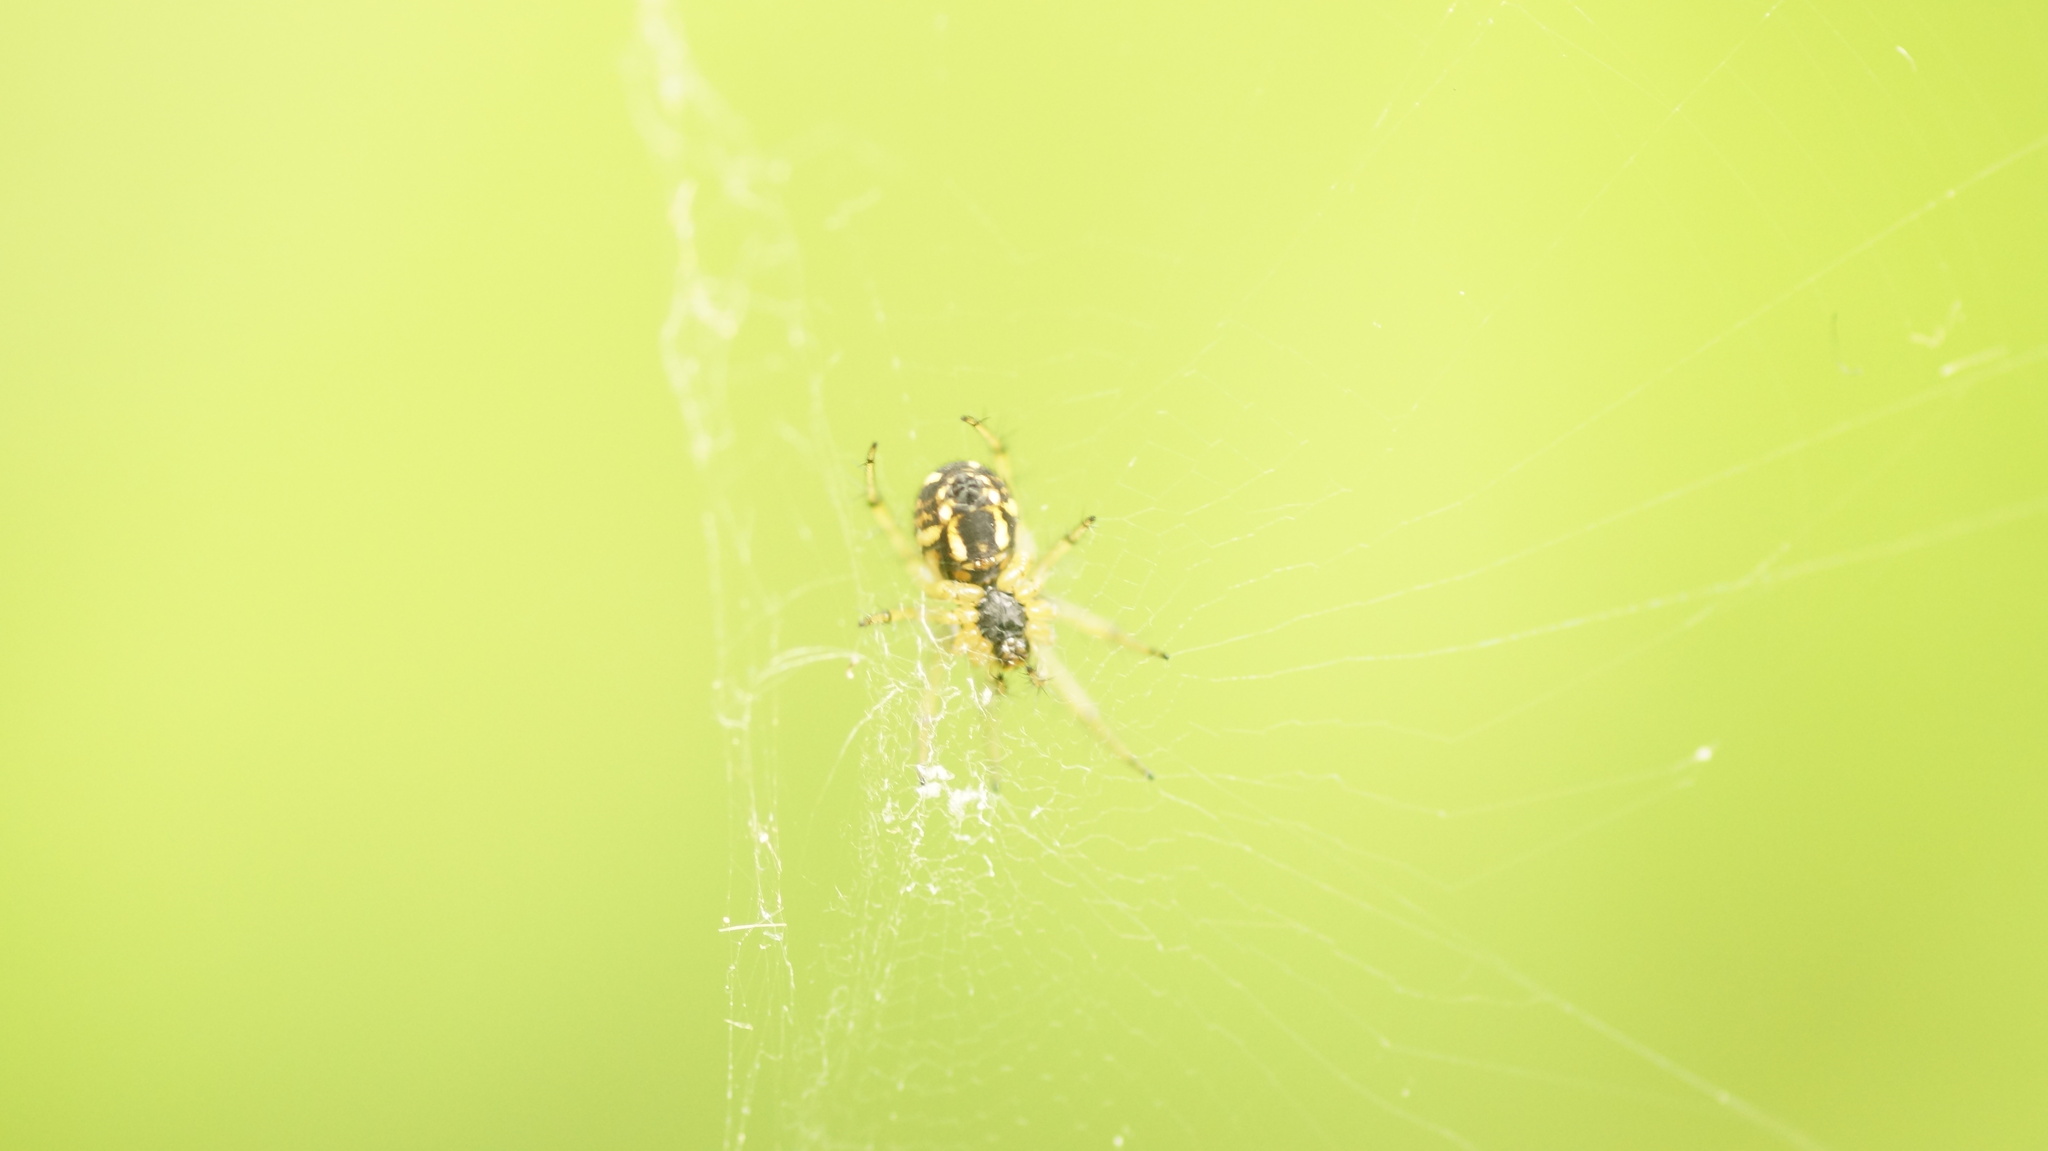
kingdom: Animalia
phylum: Arthropoda
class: Arachnida
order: Araneae
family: Araneidae
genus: Mangora
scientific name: Mangora acalypha
